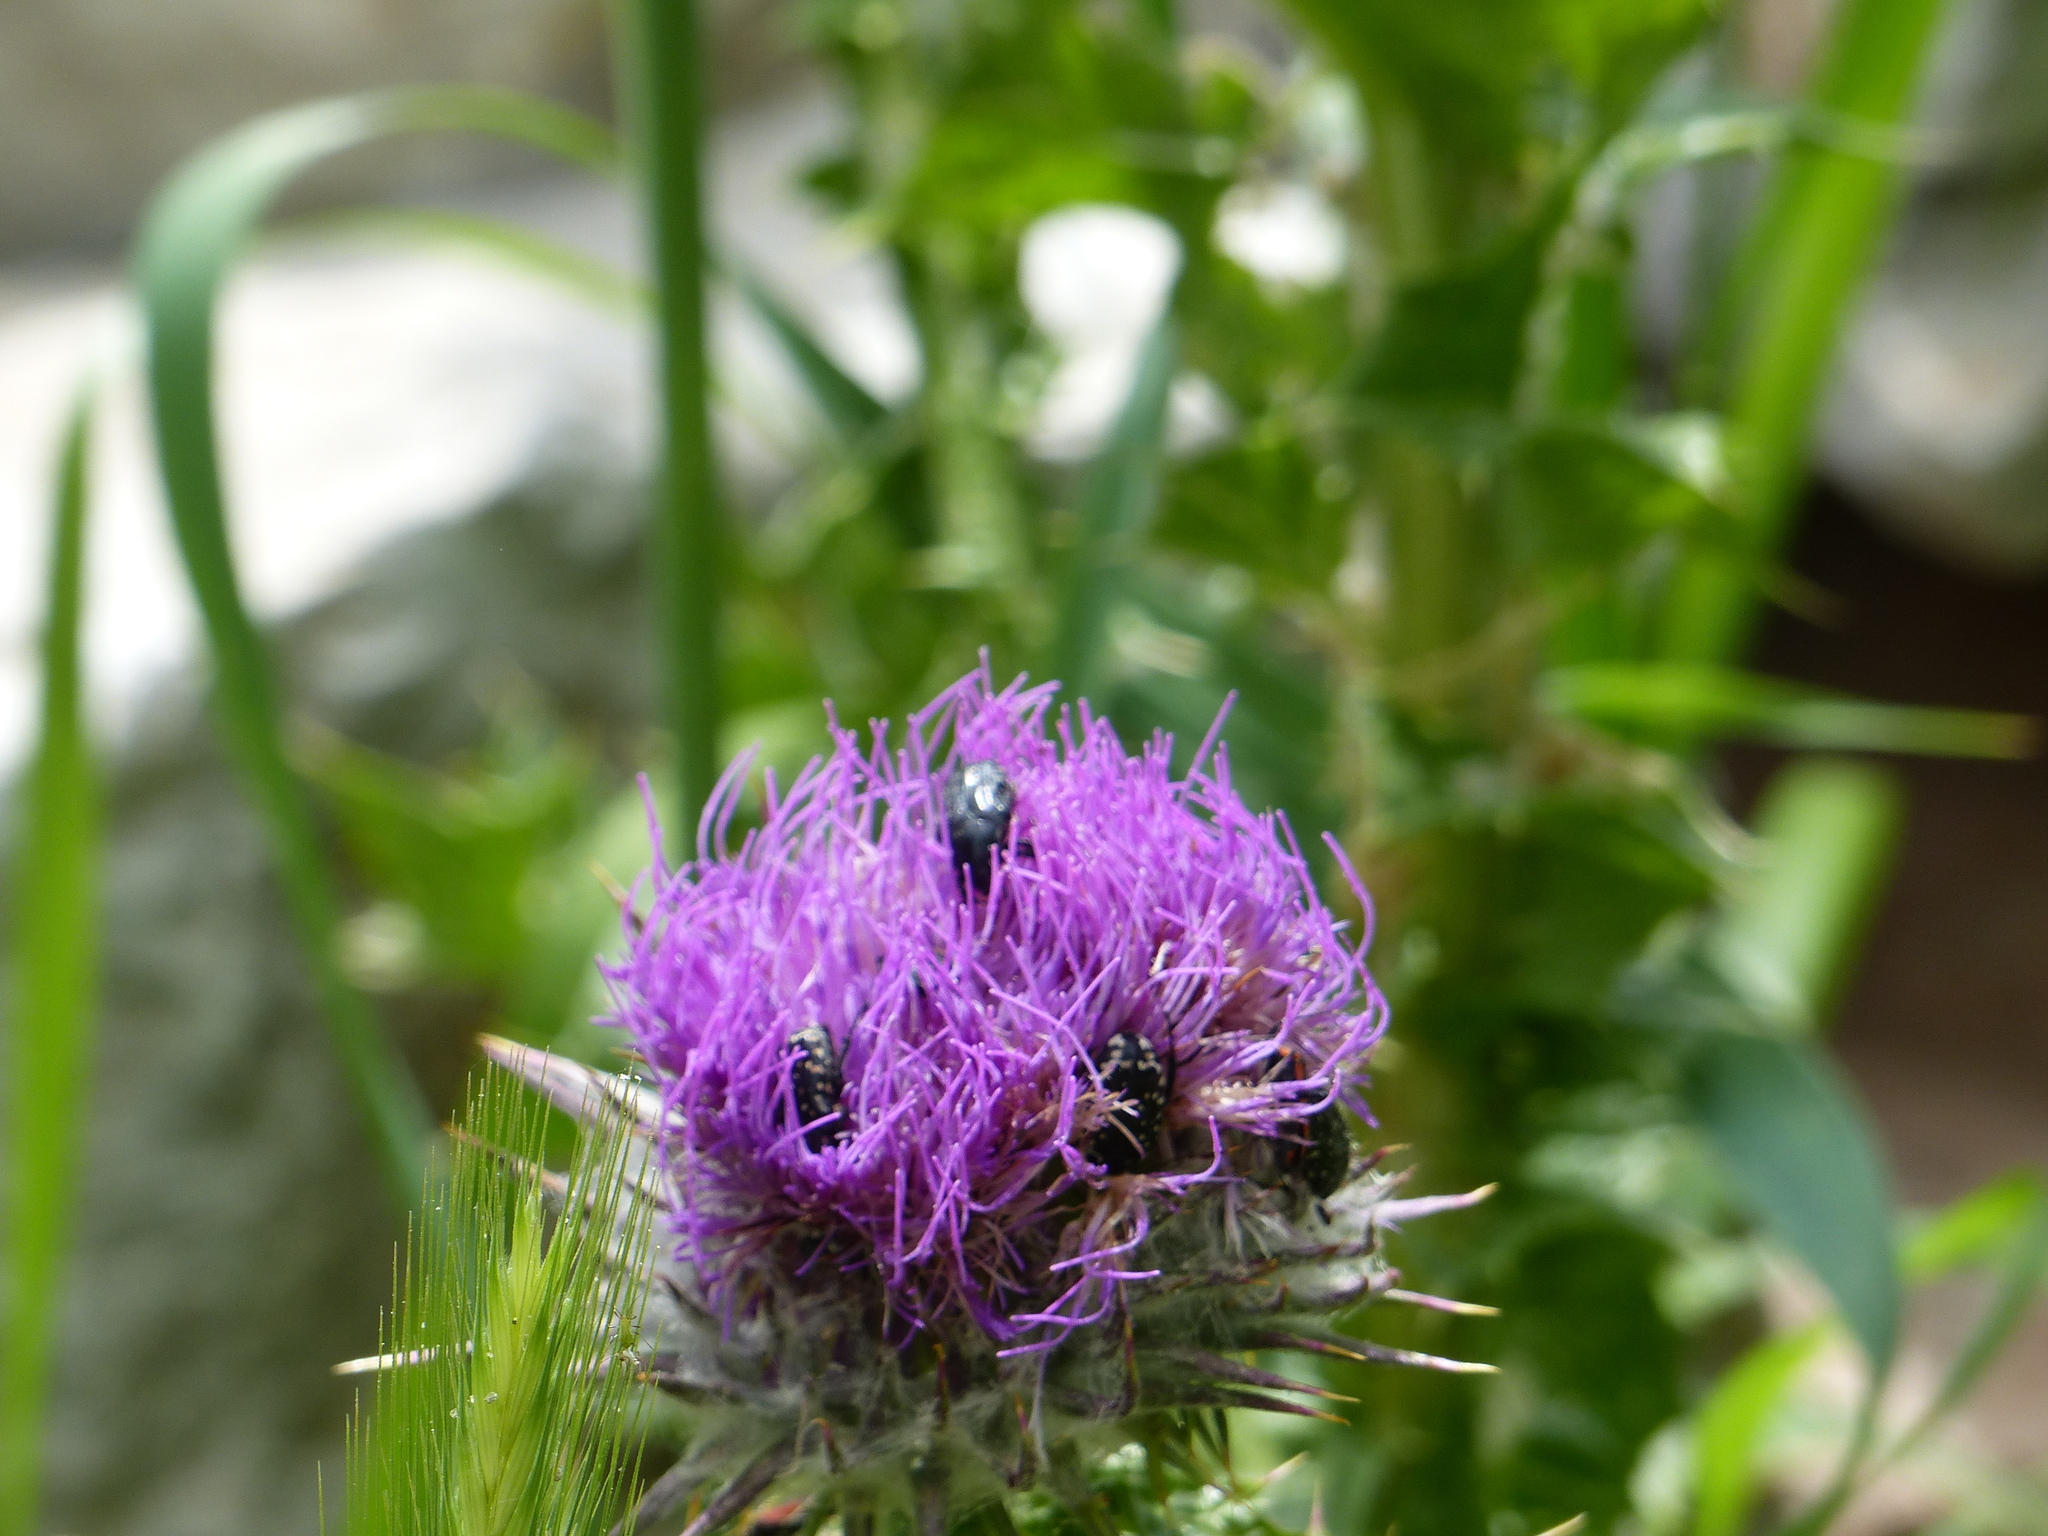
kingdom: Animalia
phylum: Arthropoda
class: Insecta
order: Coleoptera
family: Scarabaeidae
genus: Oxythyrea
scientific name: Oxythyrea cinctella
